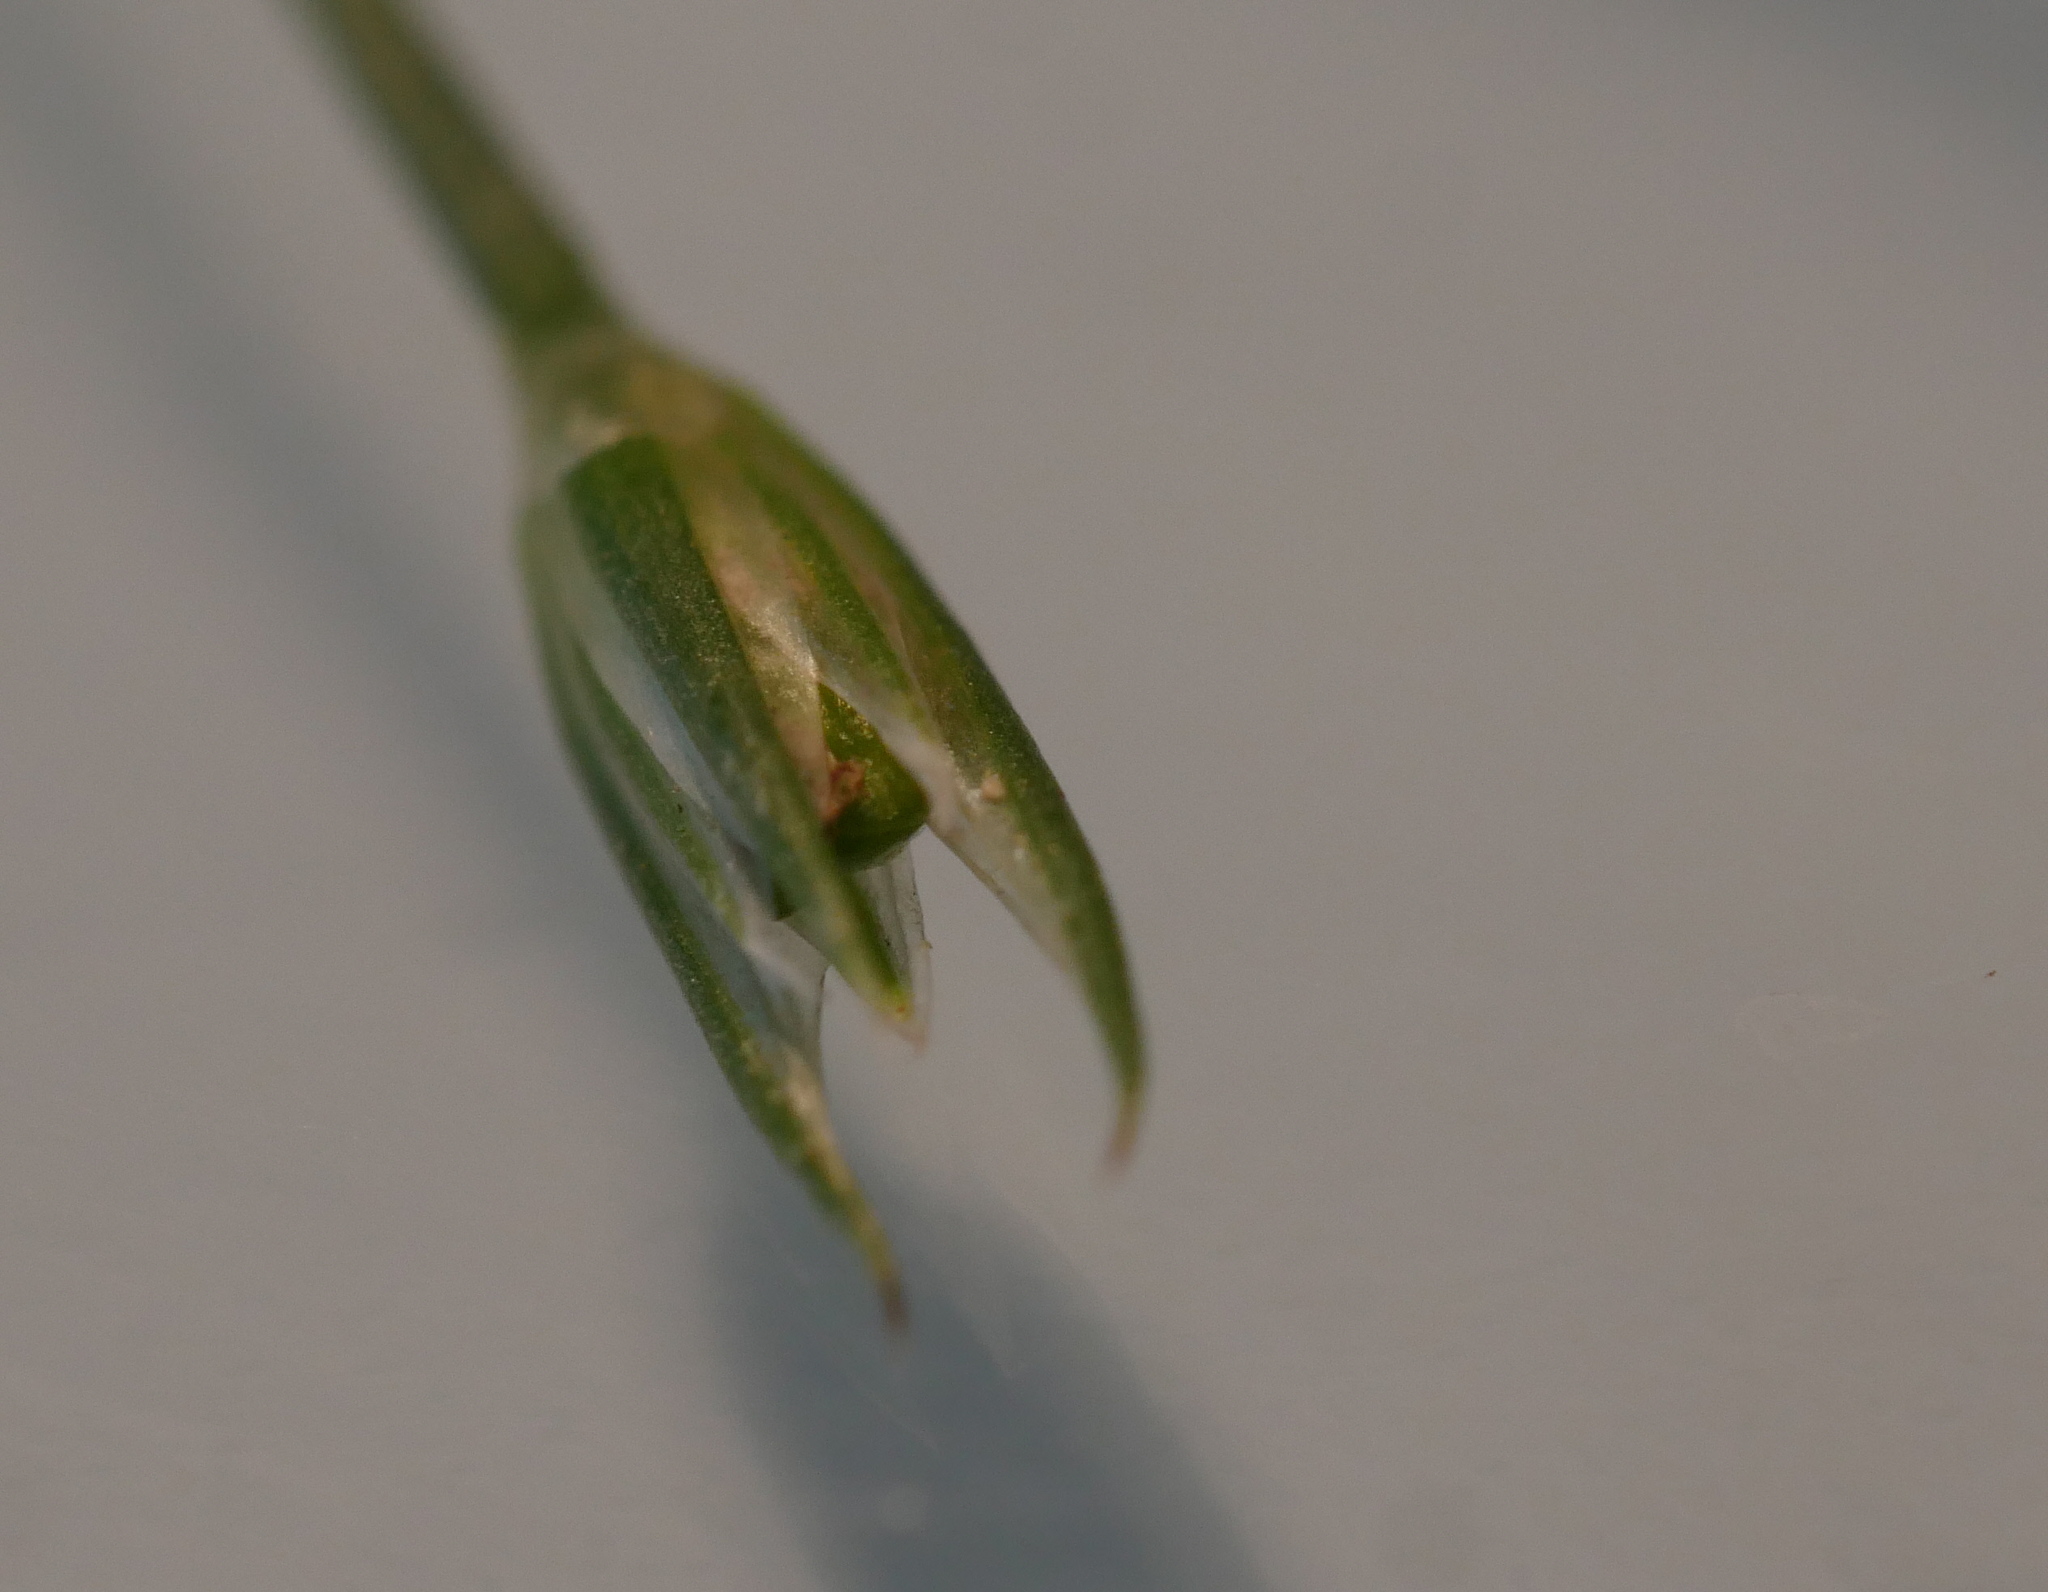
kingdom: Plantae
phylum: Tracheophyta
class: Liliopsida
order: Poales
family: Juncaceae
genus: Juncus
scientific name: Juncus tenuis
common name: Slender rush
